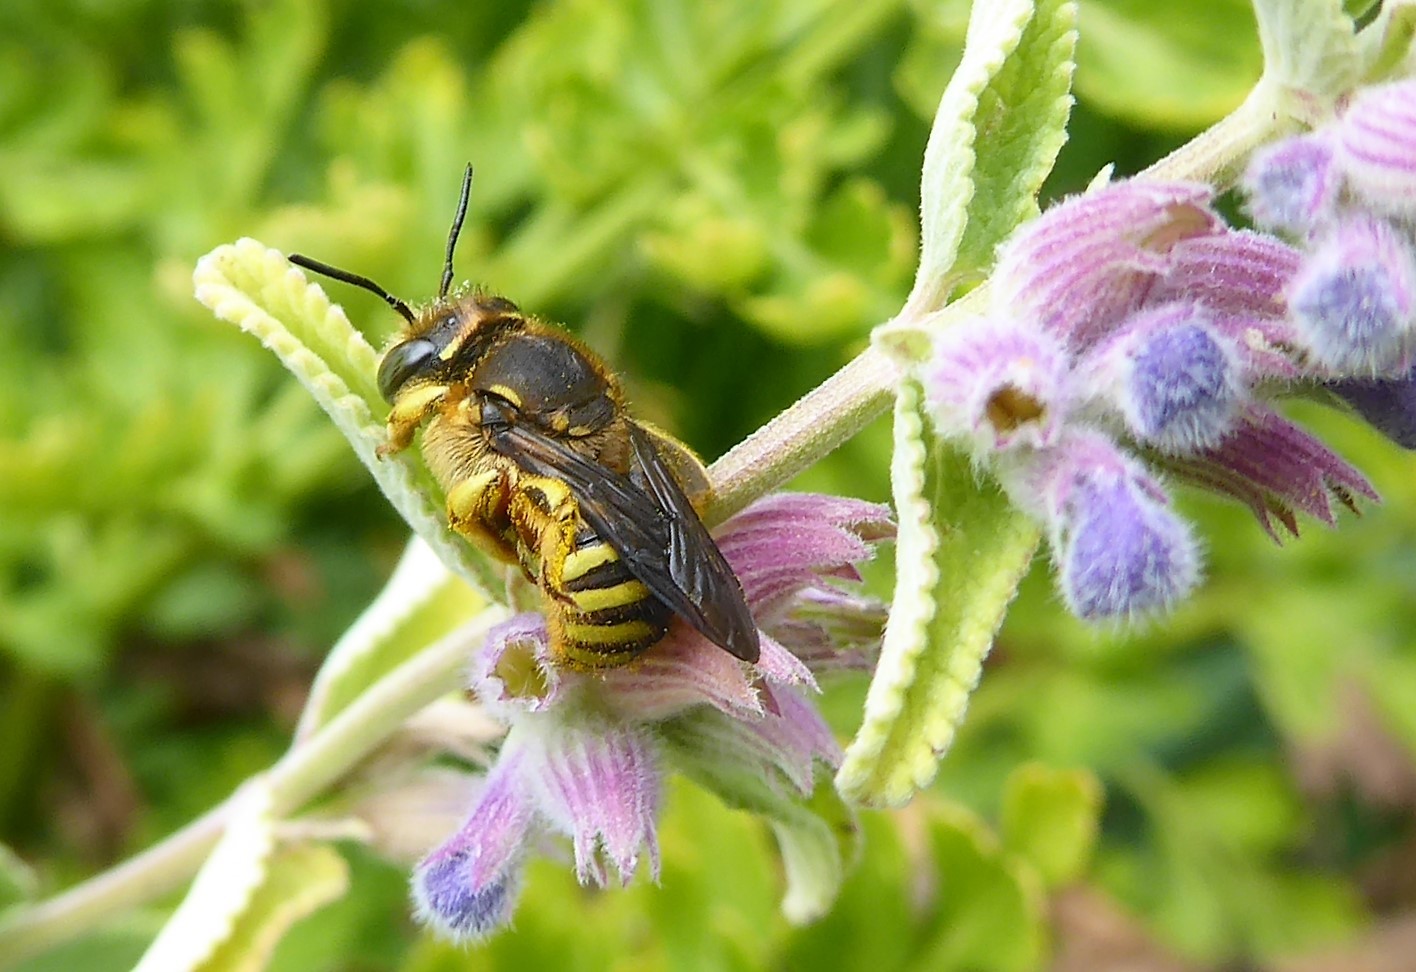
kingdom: Animalia
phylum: Arthropoda
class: Insecta
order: Hymenoptera
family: Megachilidae
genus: Anthidium
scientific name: Anthidium manicatum
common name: Wool carder bee
